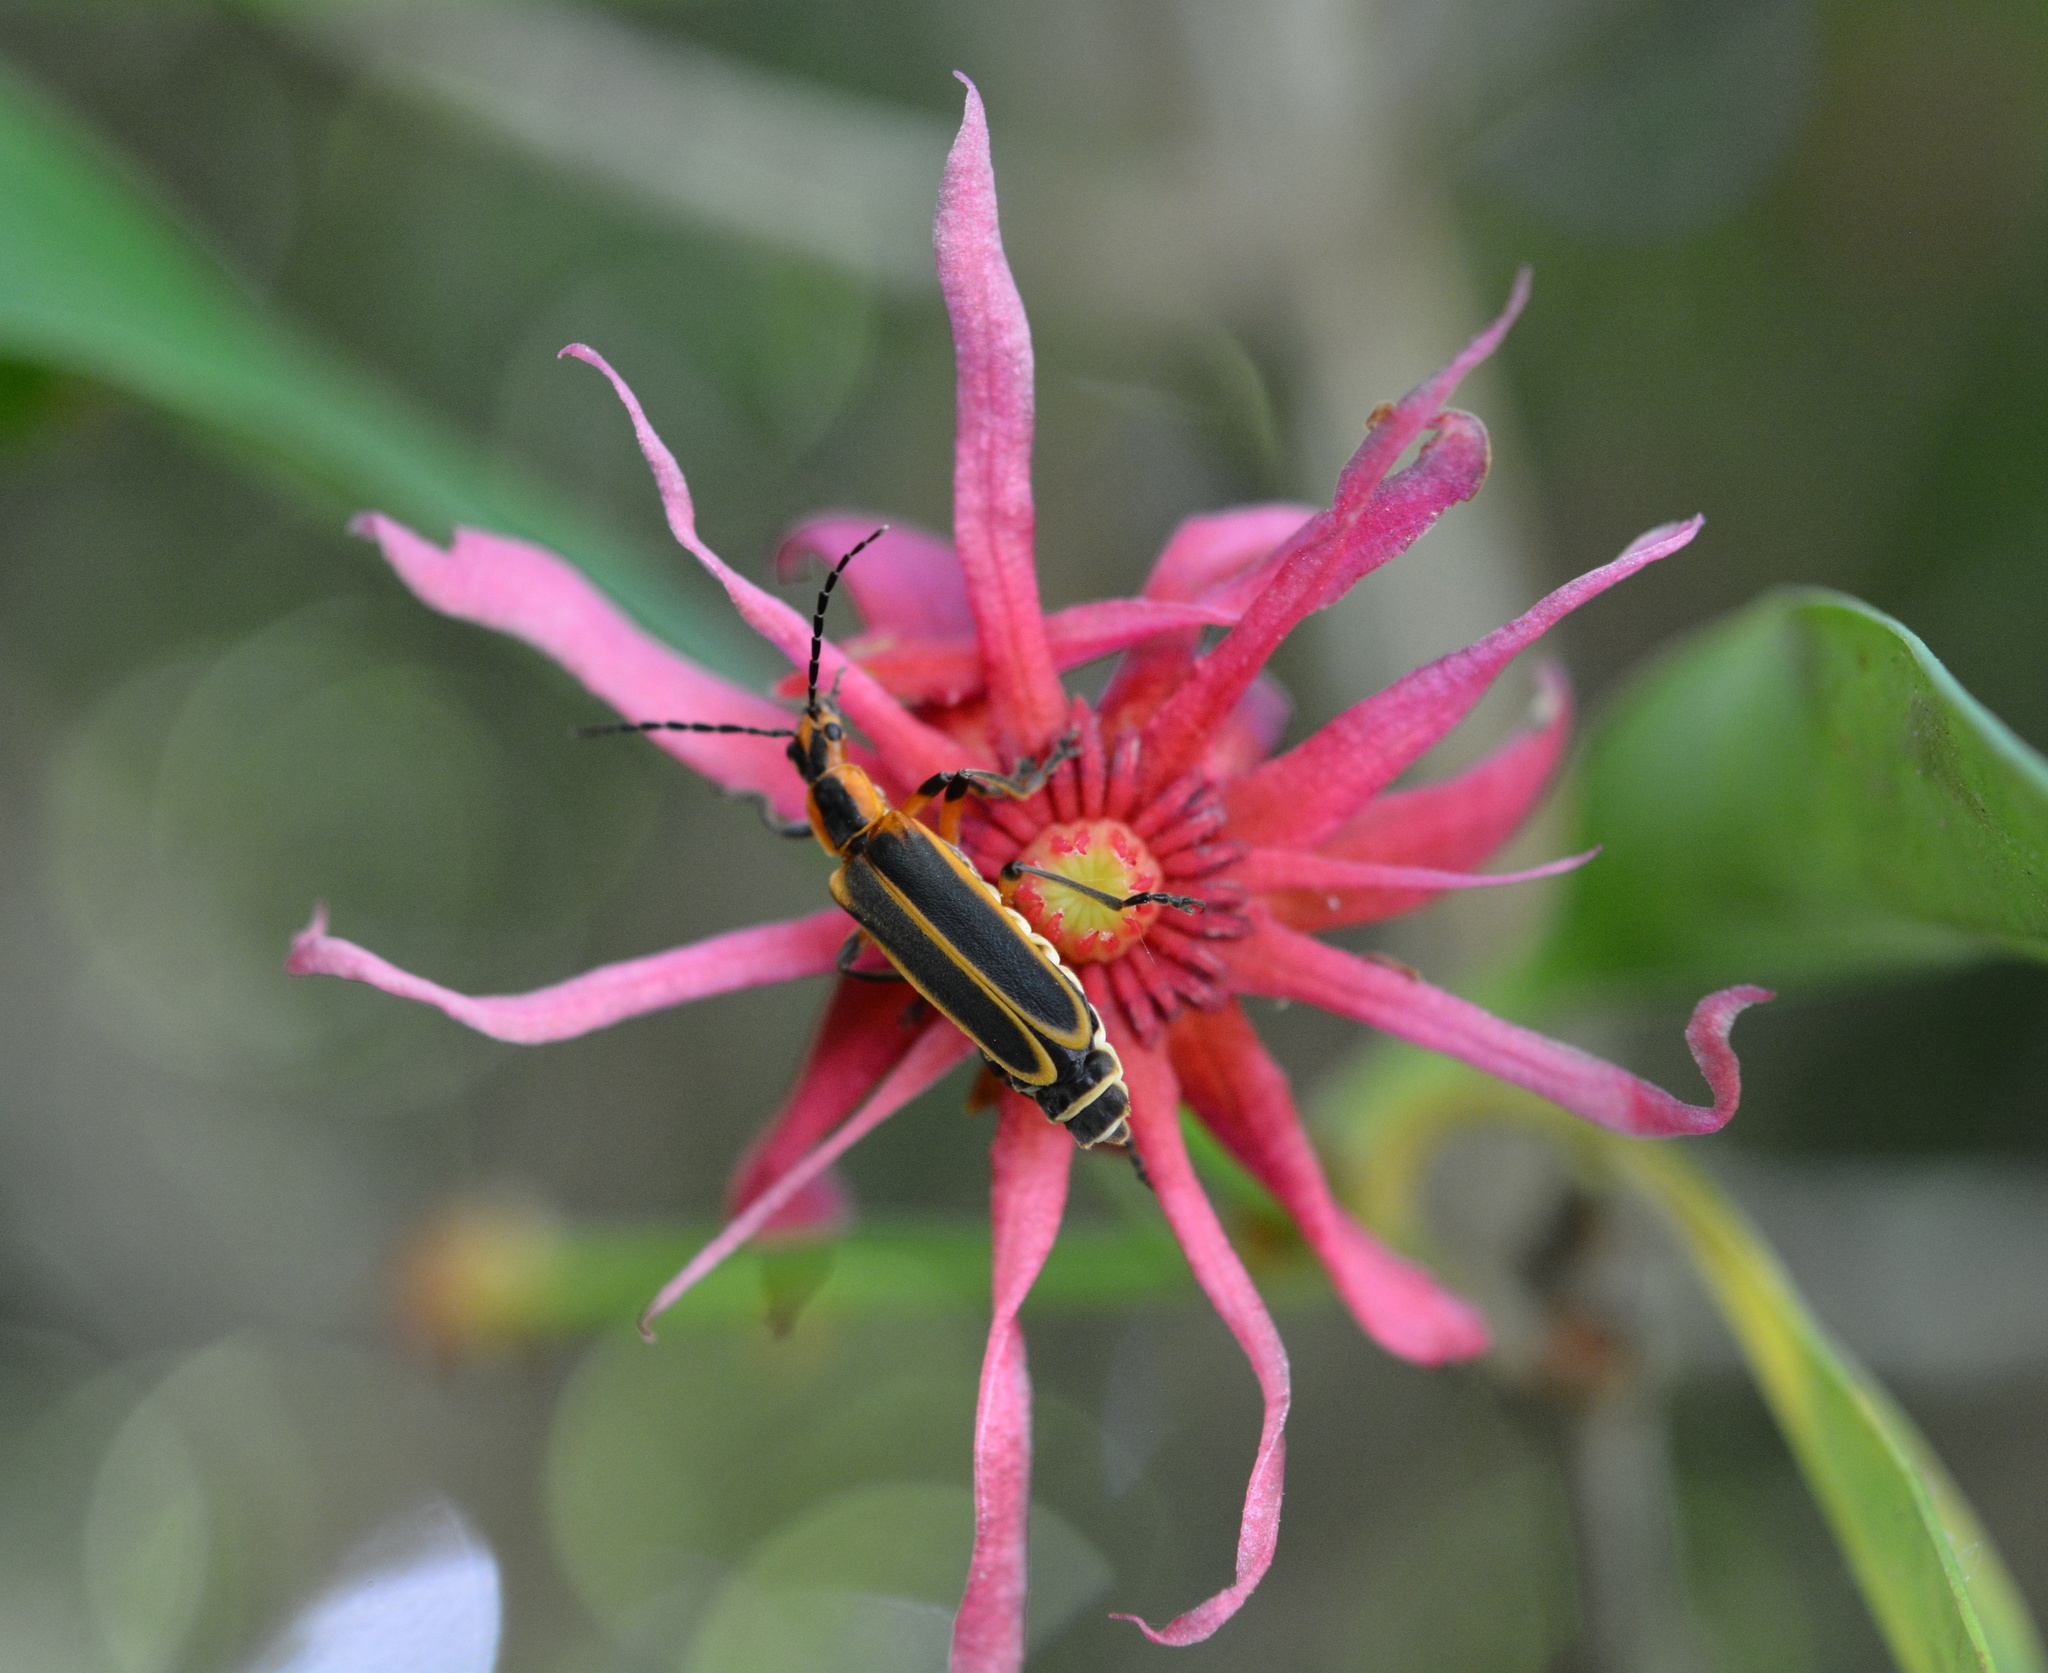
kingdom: Animalia
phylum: Arthropoda
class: Insecta
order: Coleoptera
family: Cantharidae
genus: Chauliognathus
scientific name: Chauliognathus marginatus
